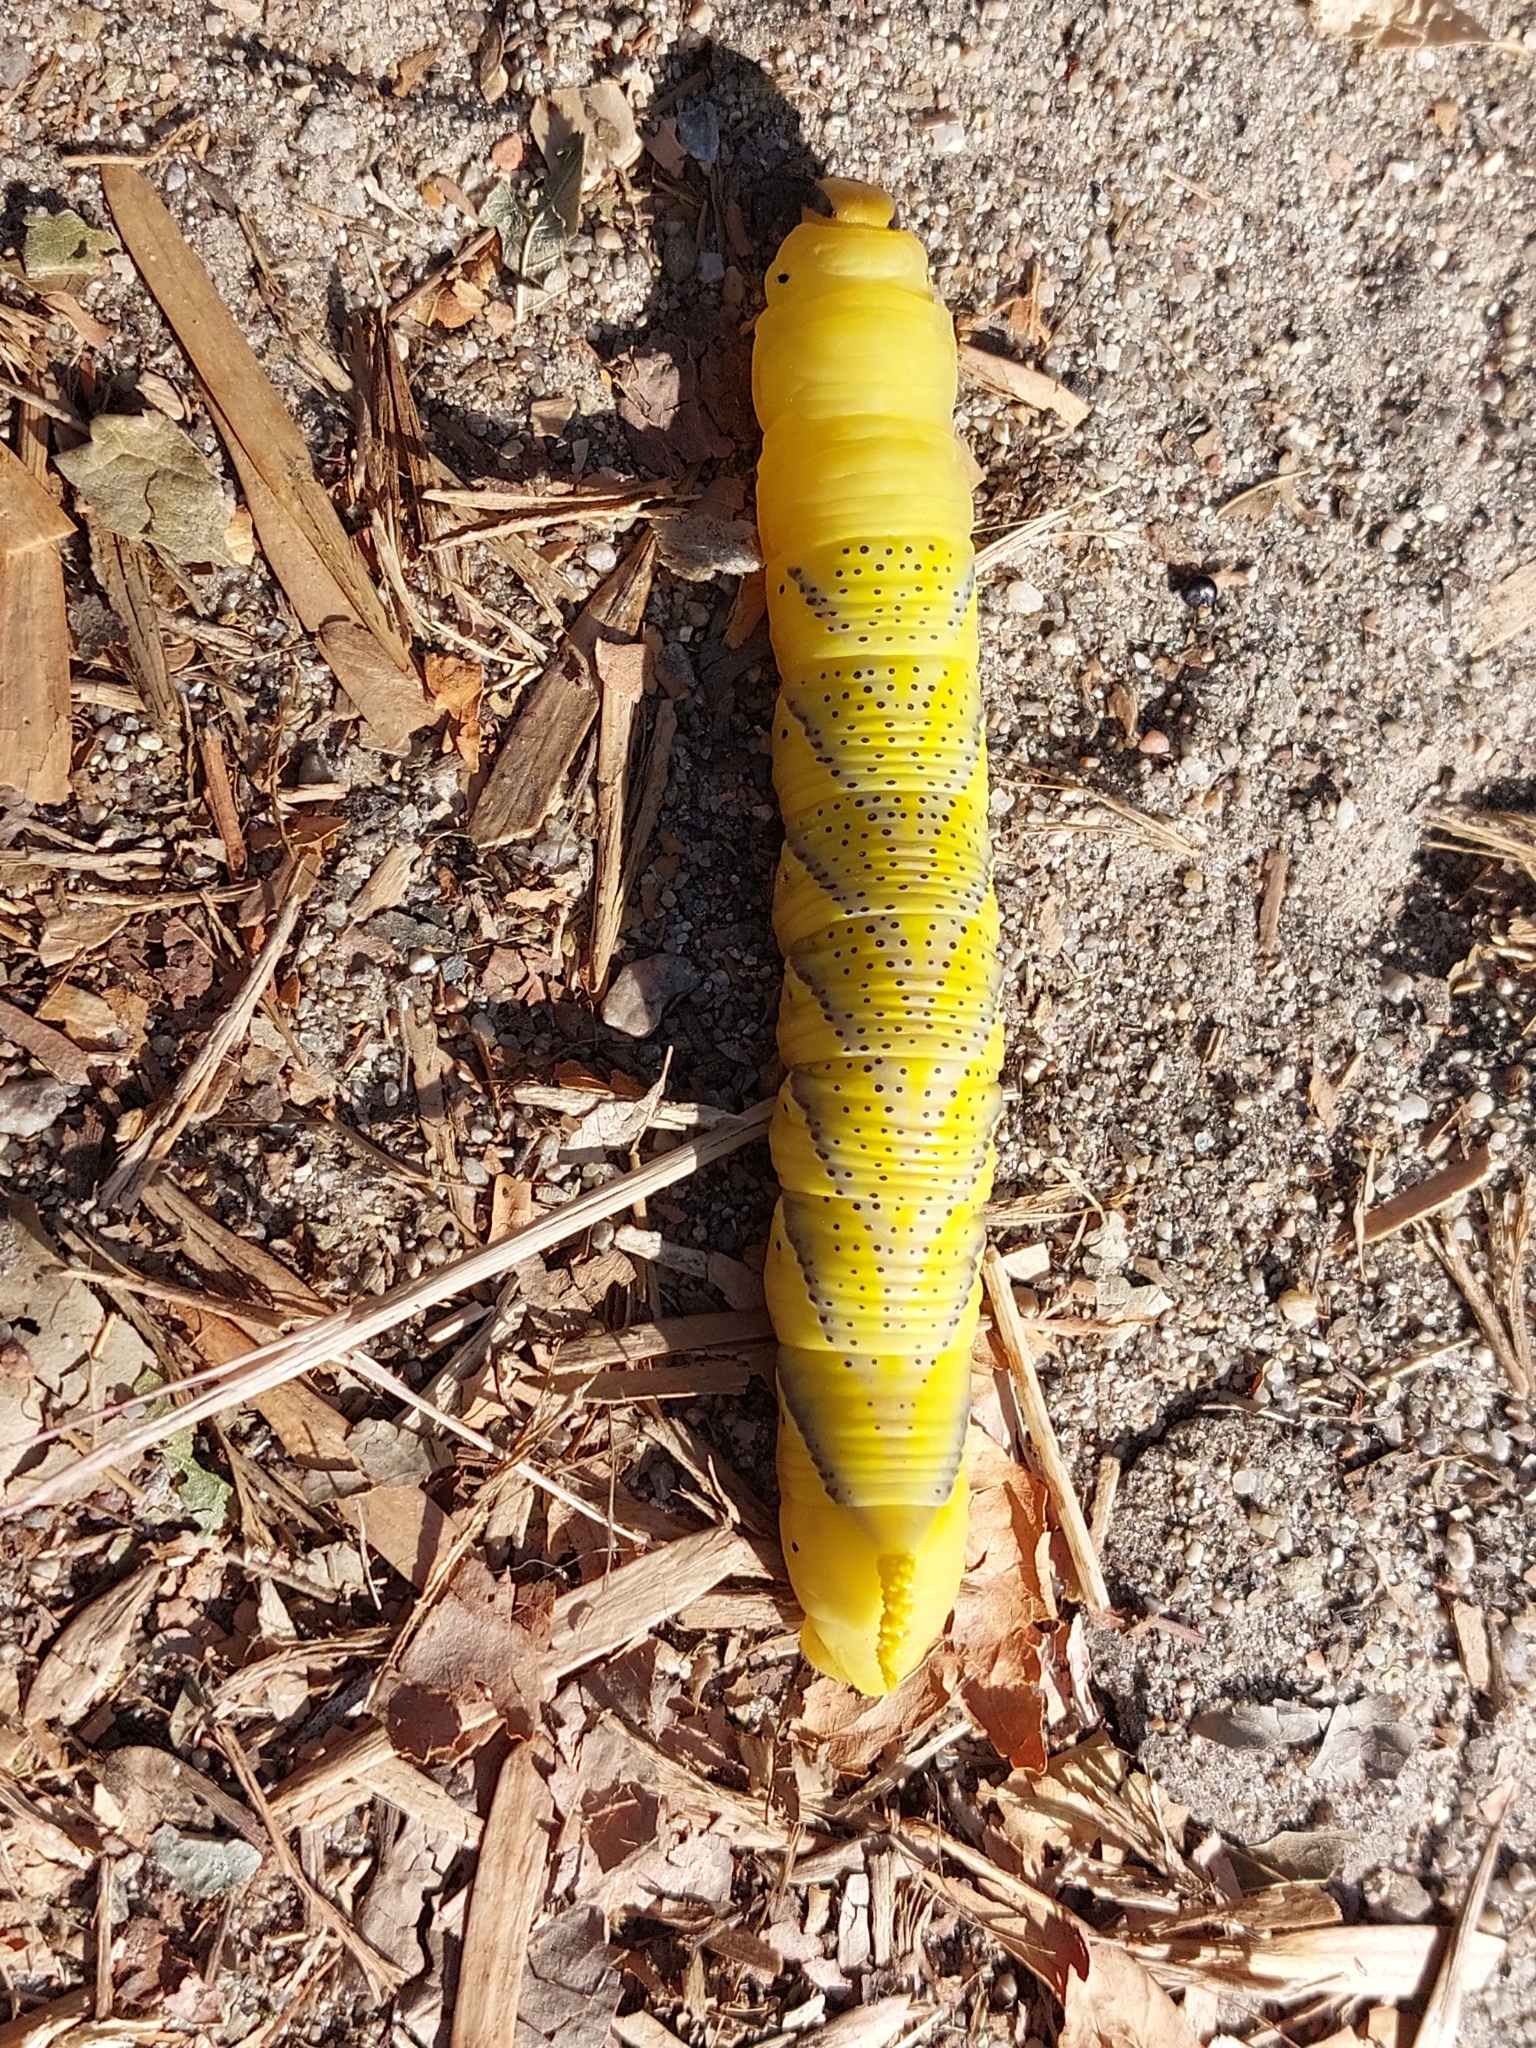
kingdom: Animalia
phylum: Arthropoda
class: Insecta
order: Lepidoptera
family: Sphingidae
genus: Acherontia
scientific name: Acherontia atropos
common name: Death's-head hawk moth
